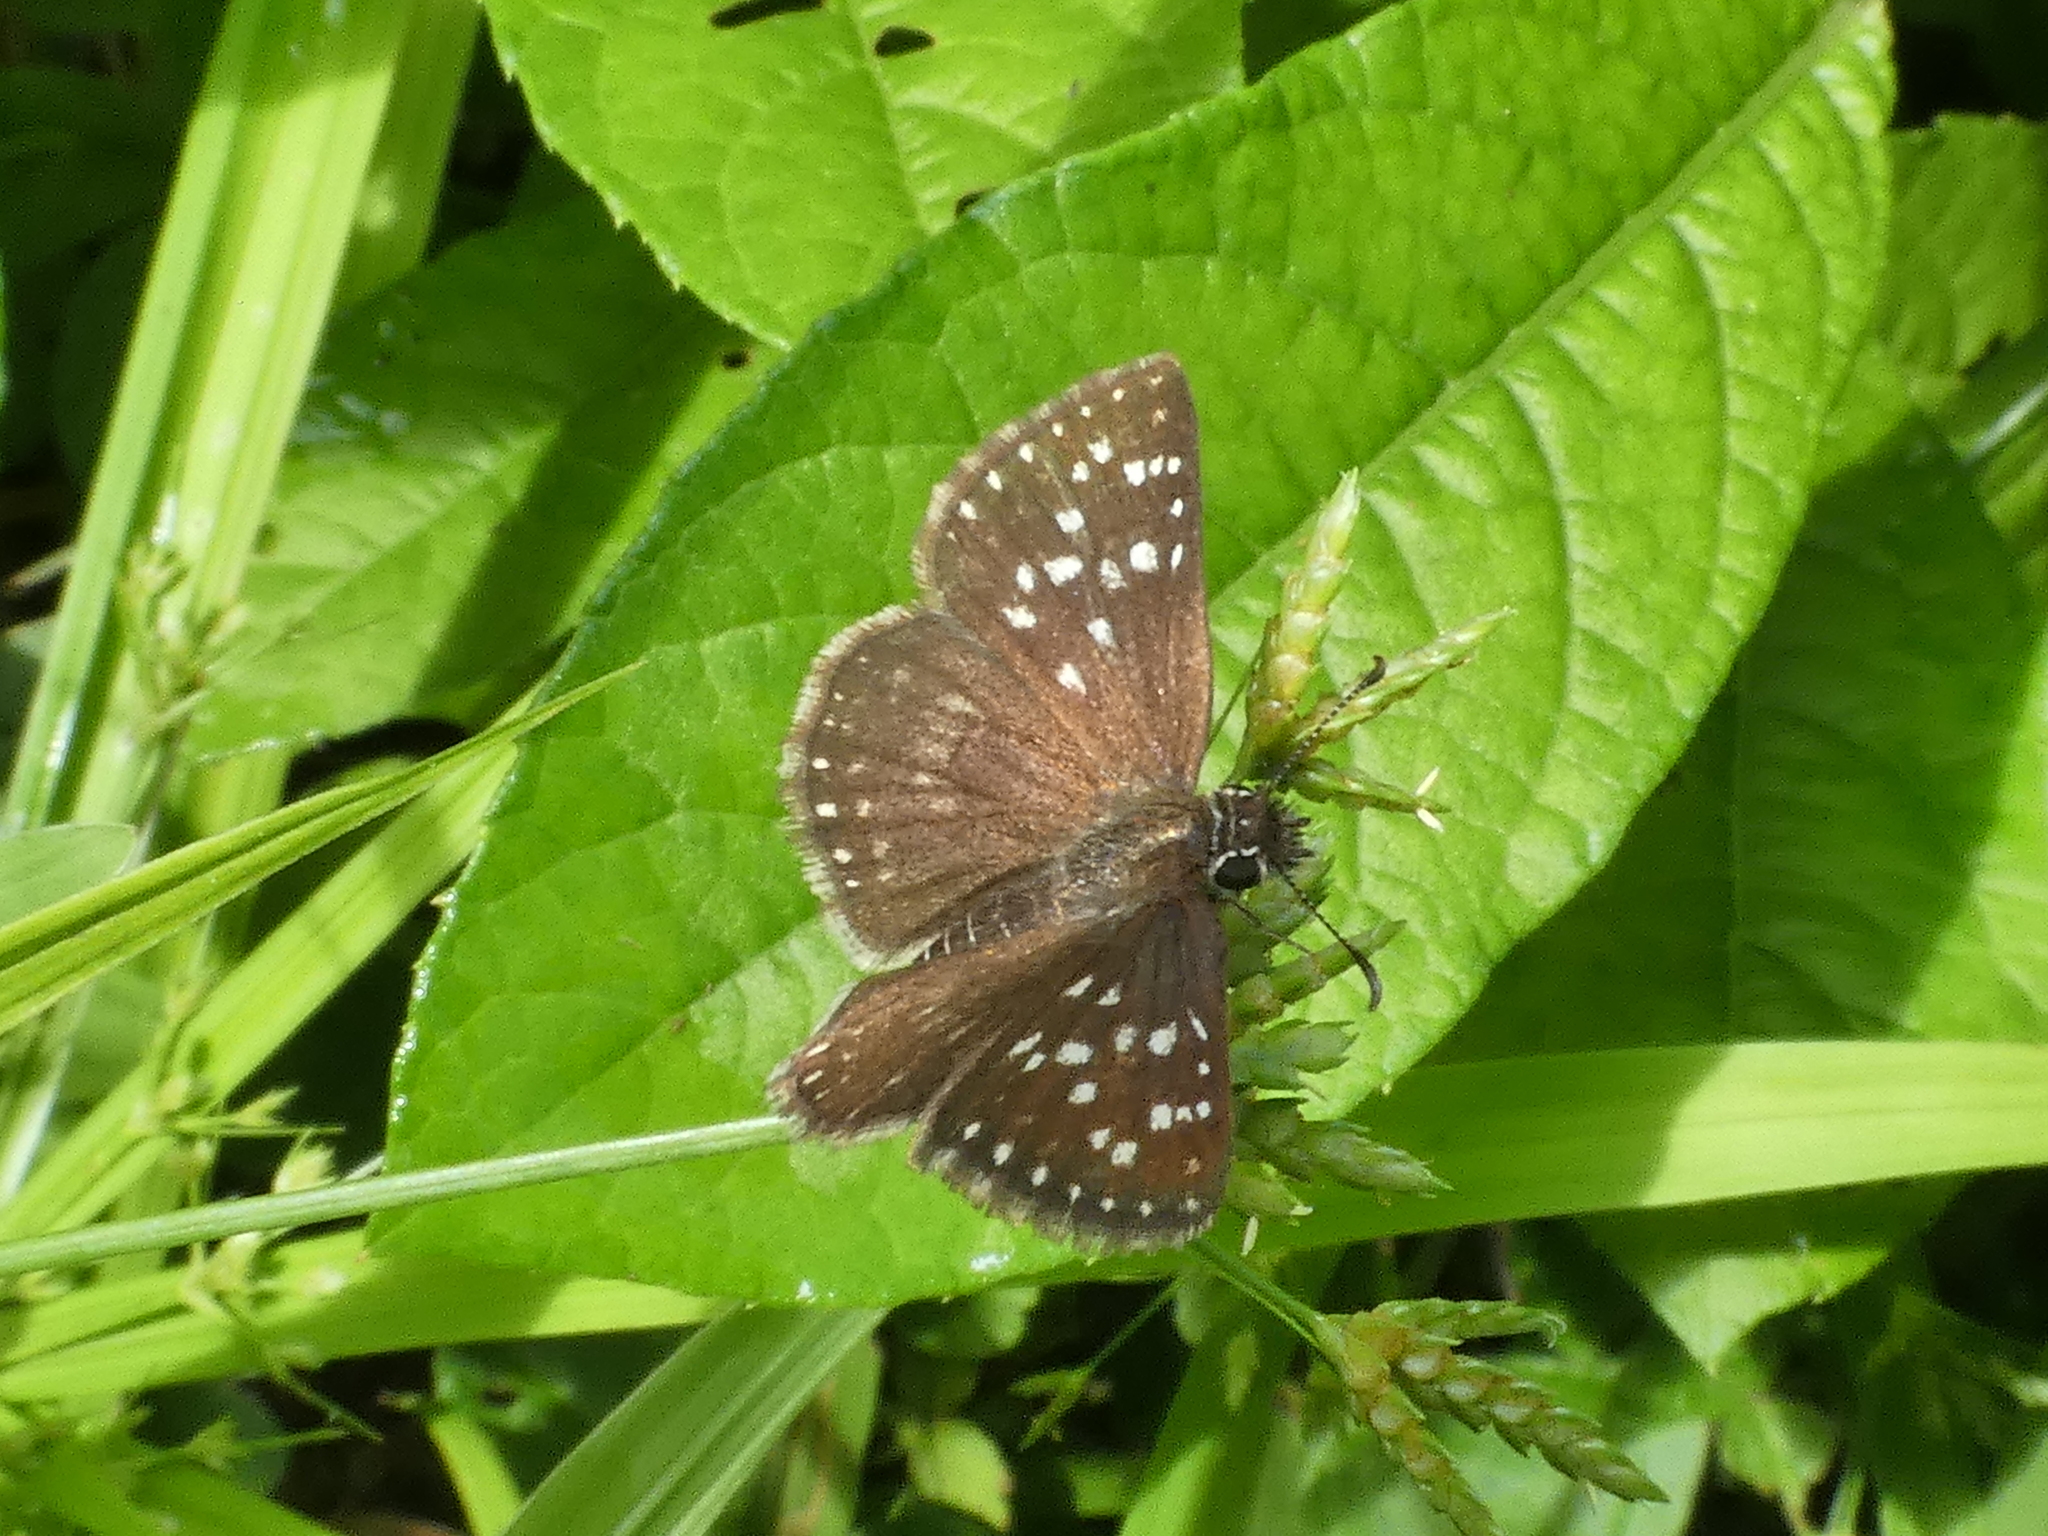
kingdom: Animalia
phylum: Arthropoda
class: Insecta
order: Lepidoptera
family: Hesperiidae
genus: Chirgus
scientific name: Chirgus
